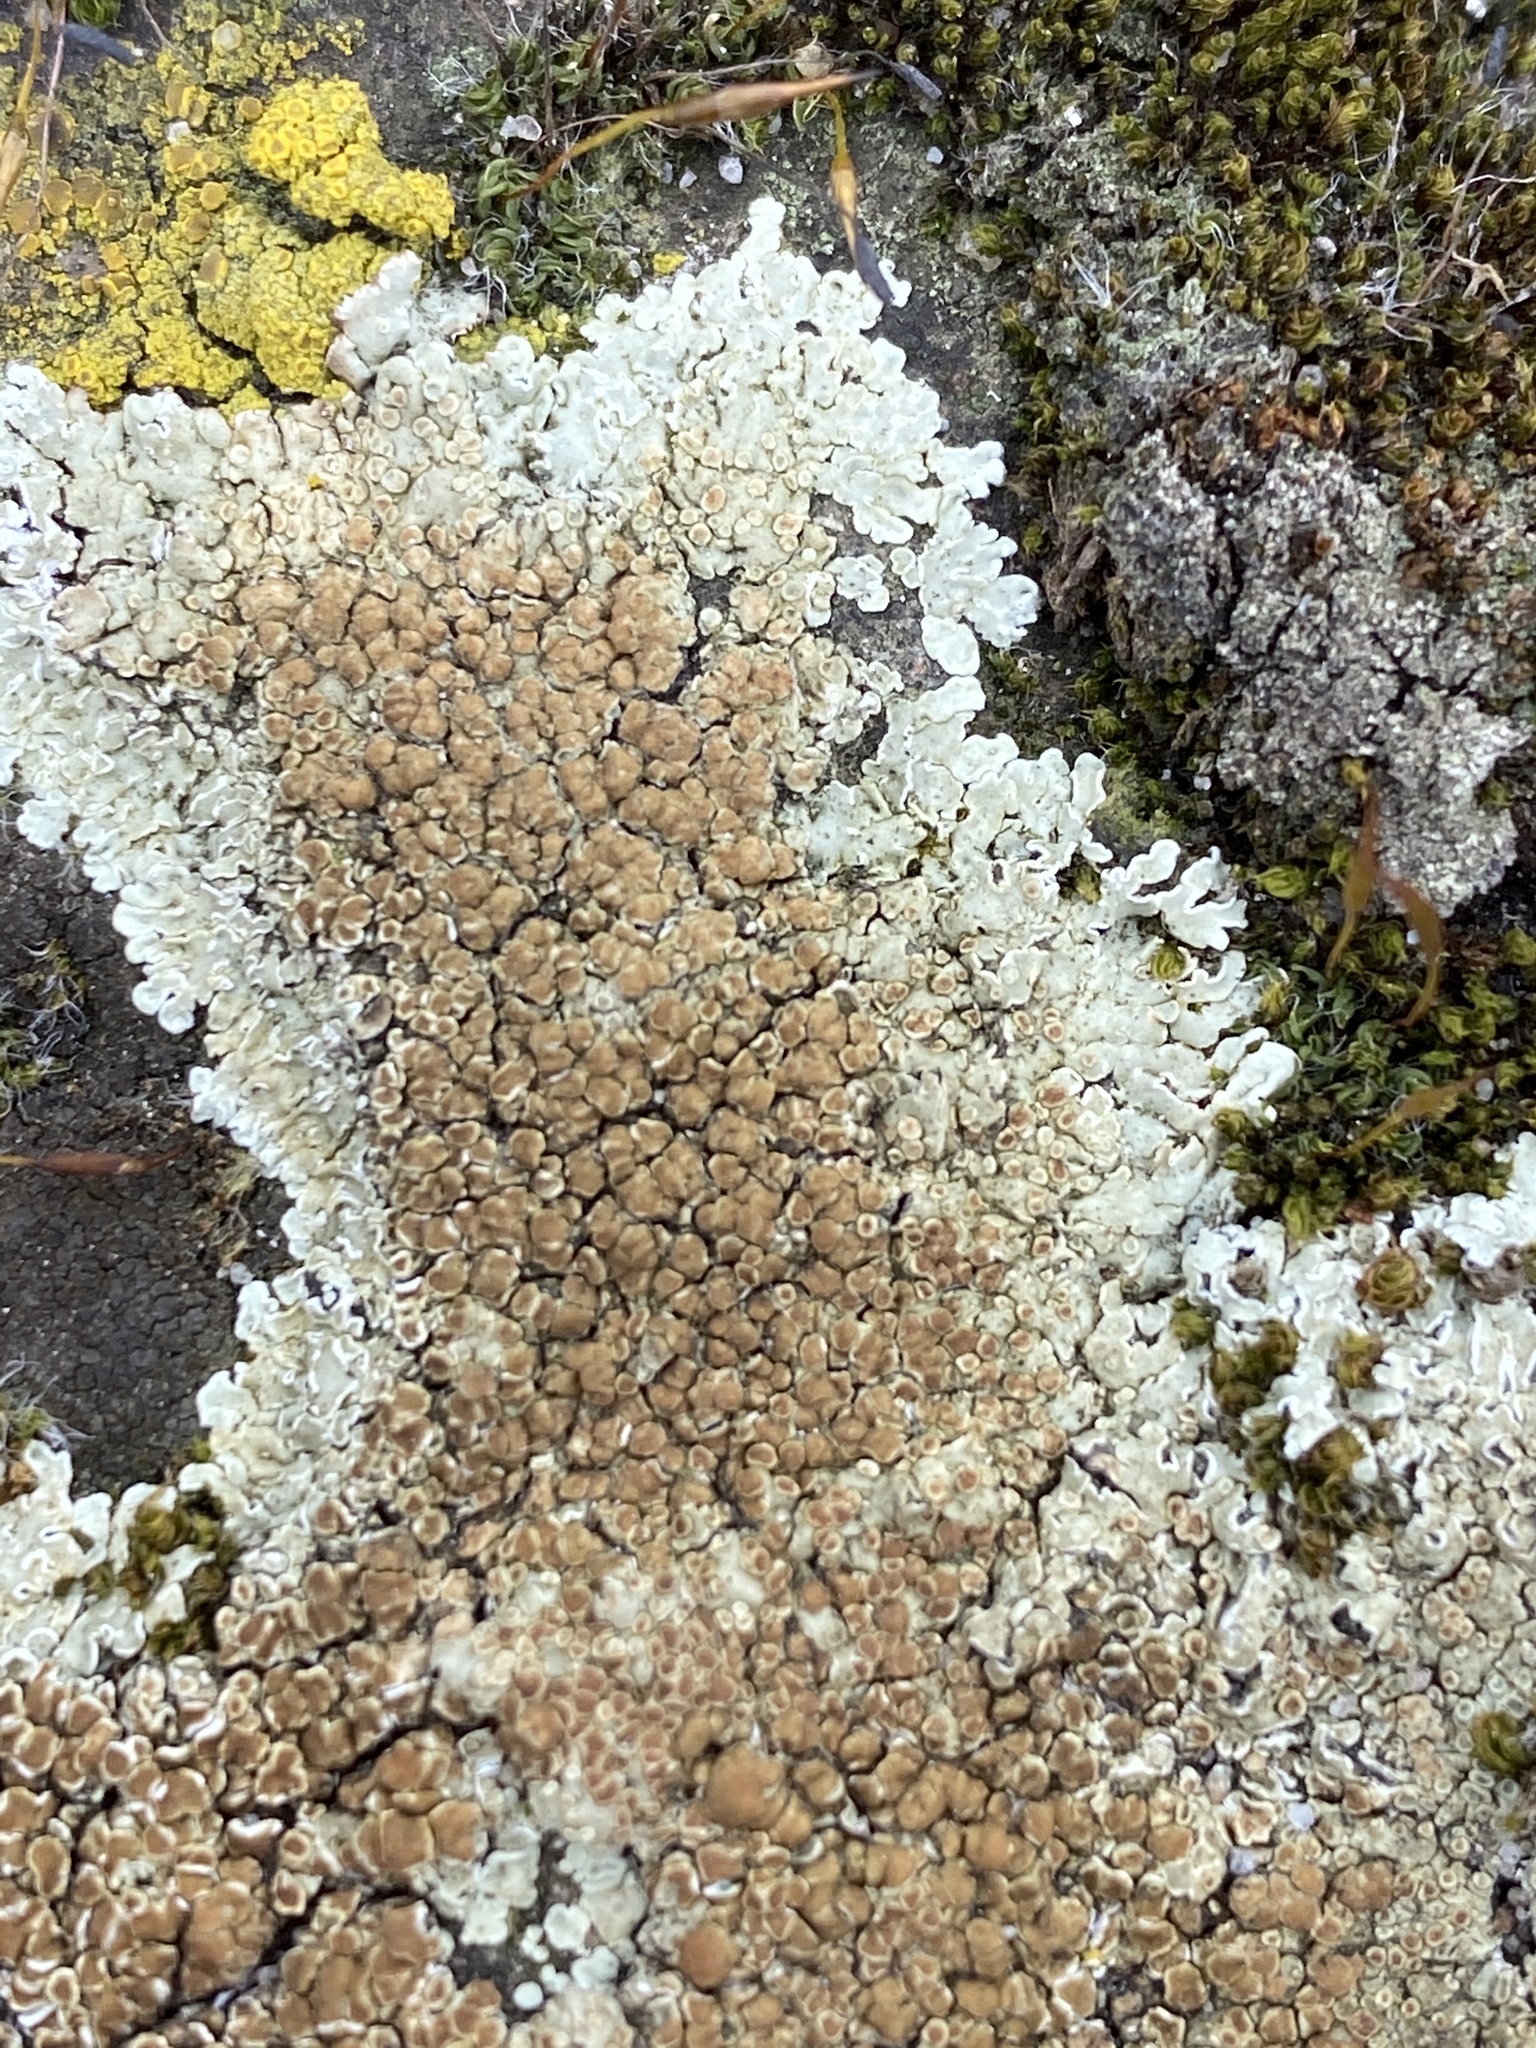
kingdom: Fungi
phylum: Ascomycota
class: Lecanoromycetes
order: Lecanorales
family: Lecanoraceae
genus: Protoparmeliopsis
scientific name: Protoparmeliopsis muralis
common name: Stonewall rim lichen
